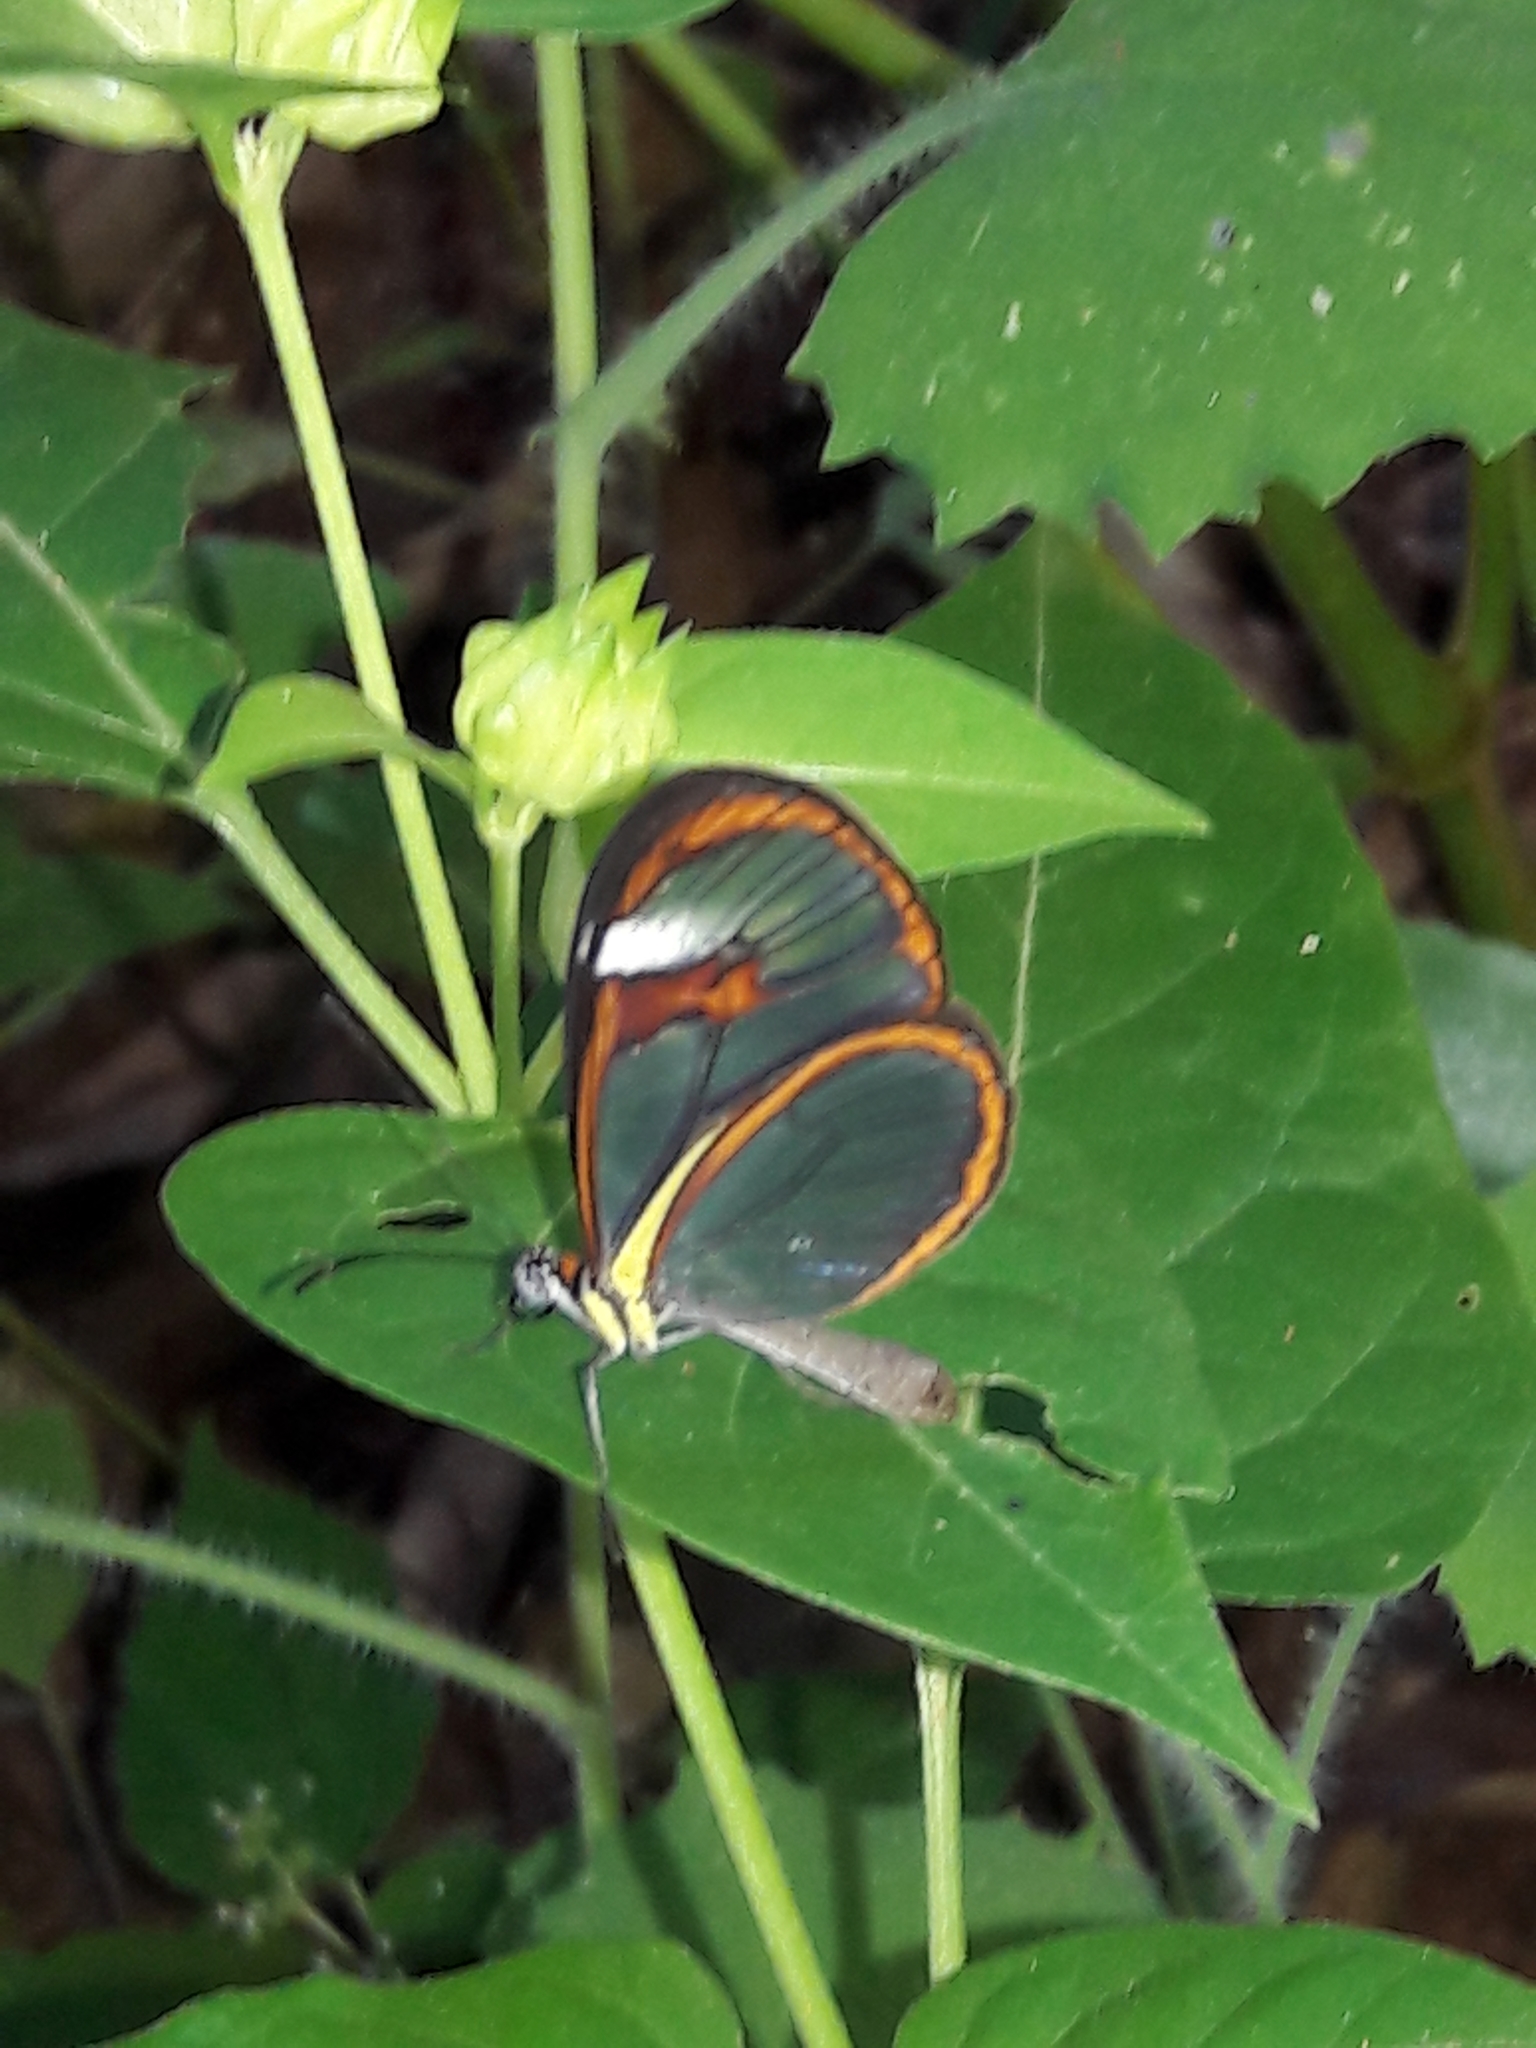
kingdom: Animalia
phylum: Arthropoda
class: Insecta
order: Lepidoptera
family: Nymphalidae
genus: Ithomia
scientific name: Ithomia agnosia
